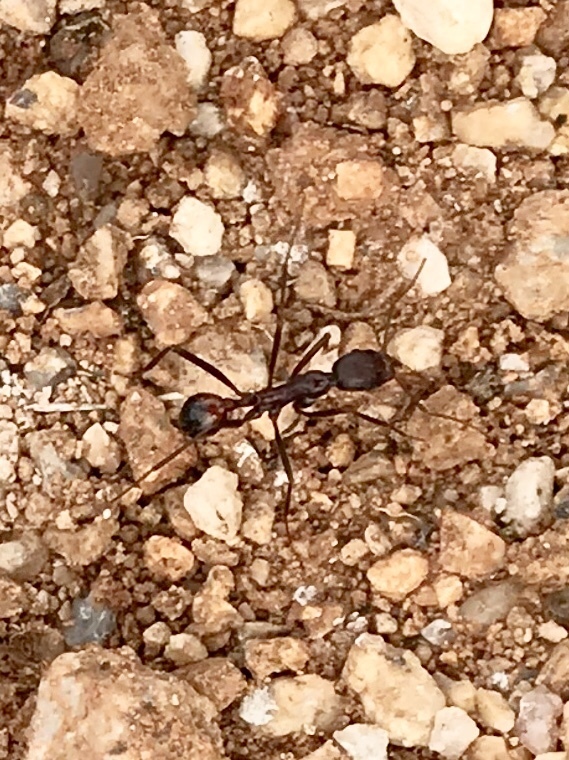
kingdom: Animalia
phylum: Arthropoda
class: Insecta
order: Hymenoptera
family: Formicidae
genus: Novomessor
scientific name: Novomessor cockerelli
